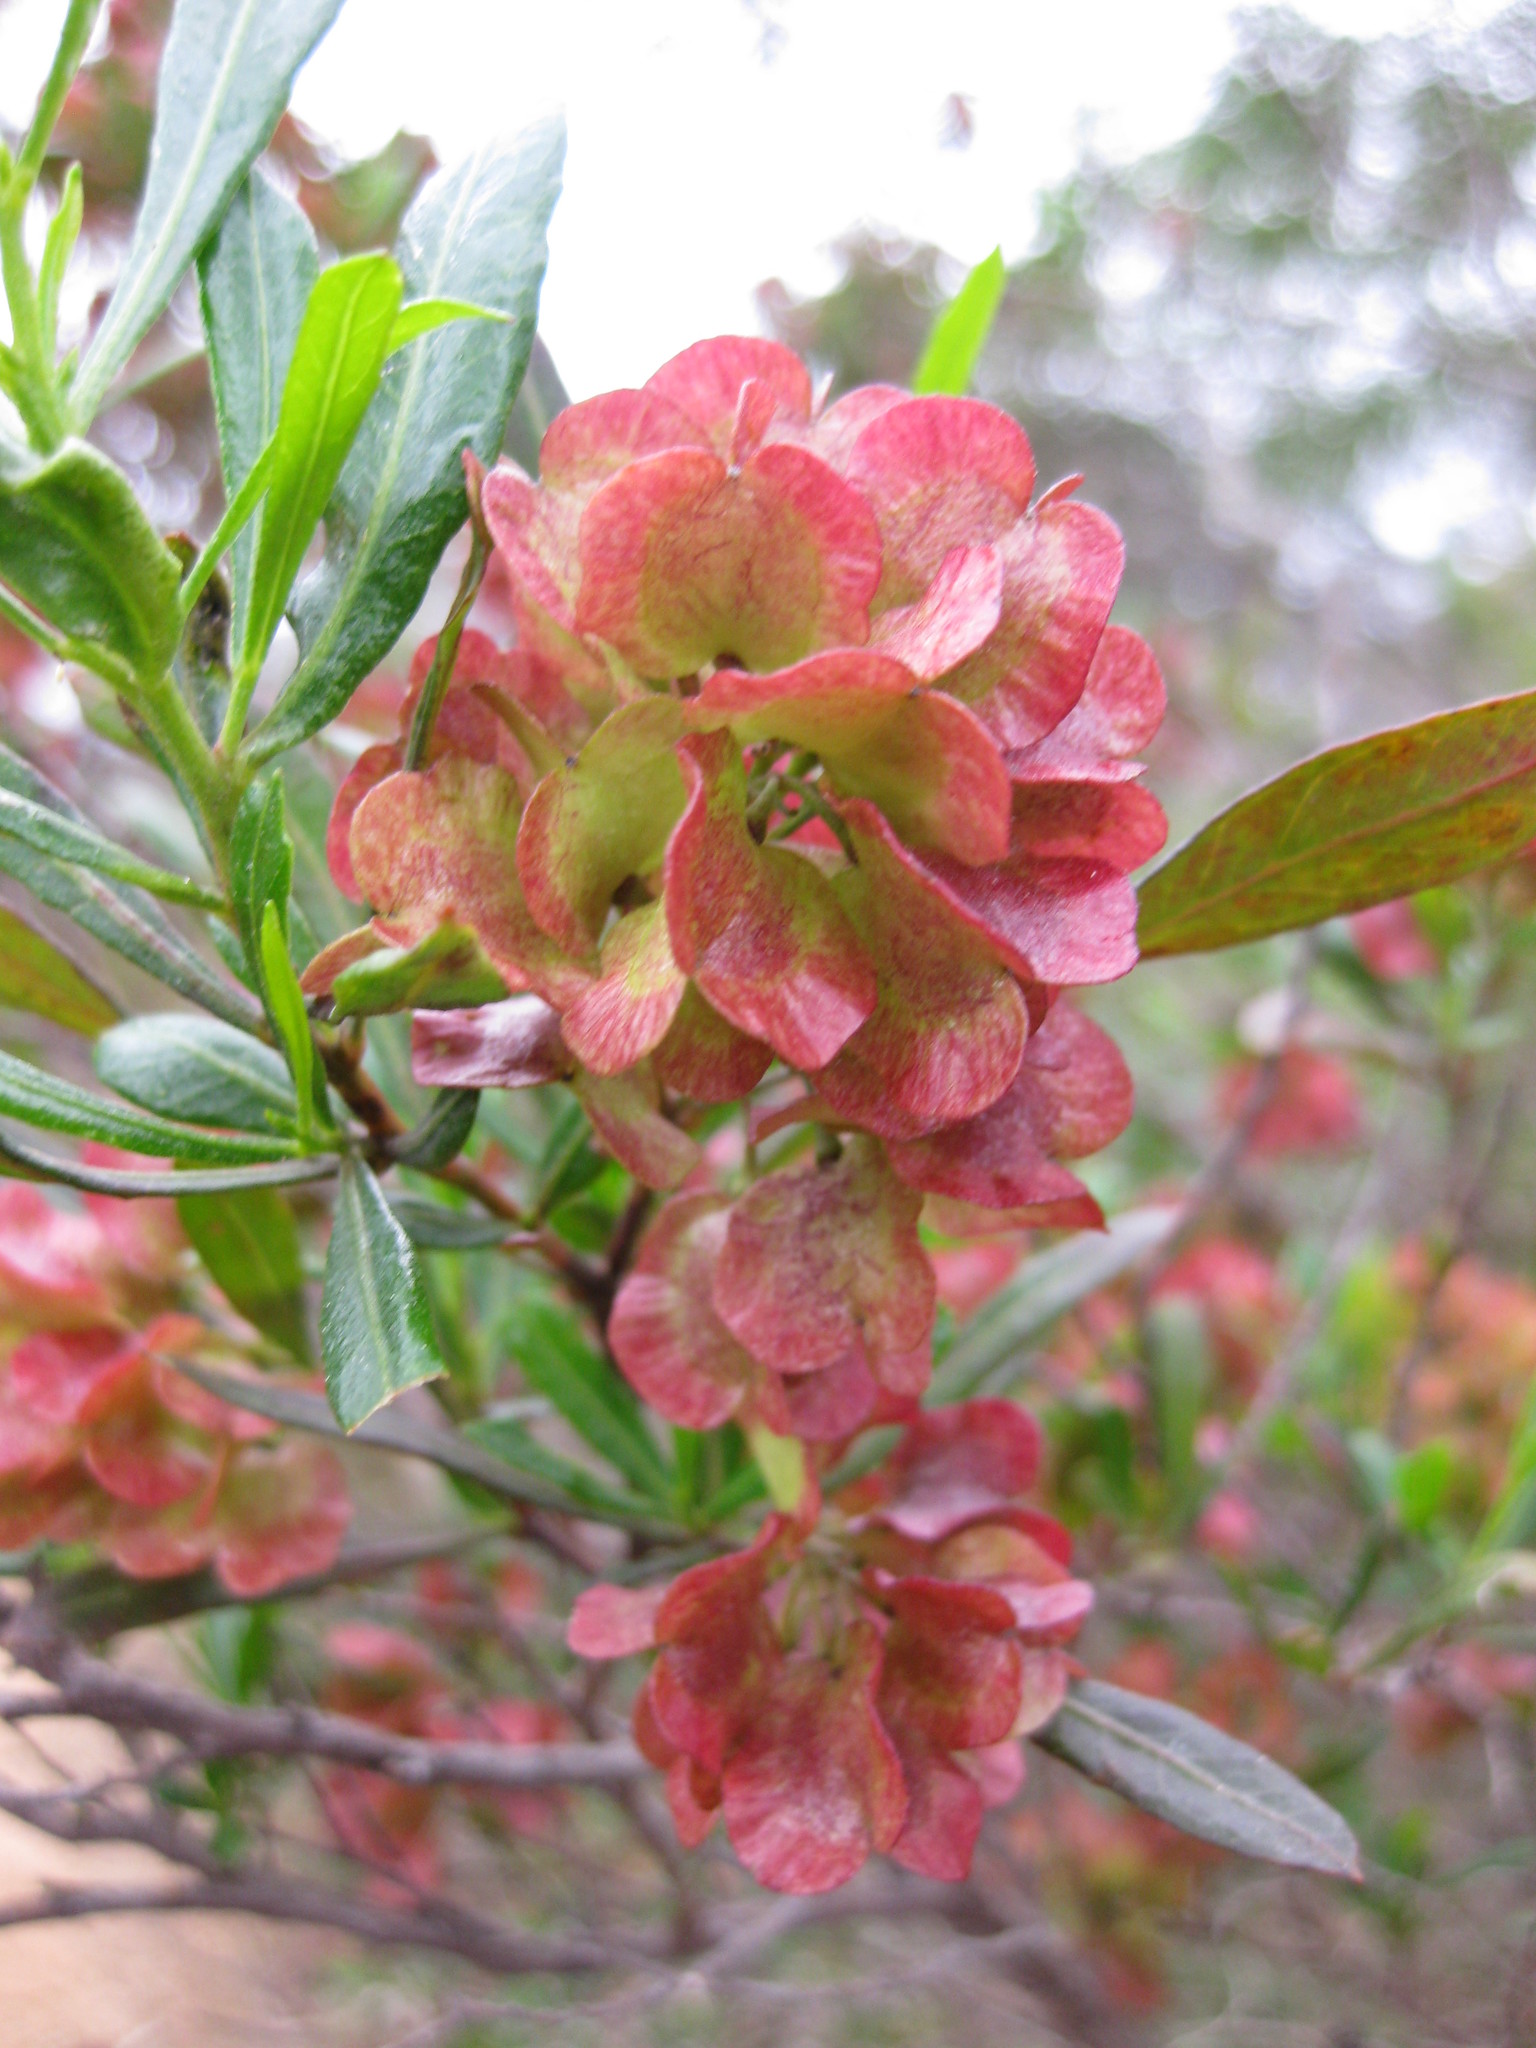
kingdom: Plantae
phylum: Tracheophyta
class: Magnoliopsida
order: Sapindales
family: Sapindaceae
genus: Dodonaea
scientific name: Dodonaea viscosa
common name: Hopbush
